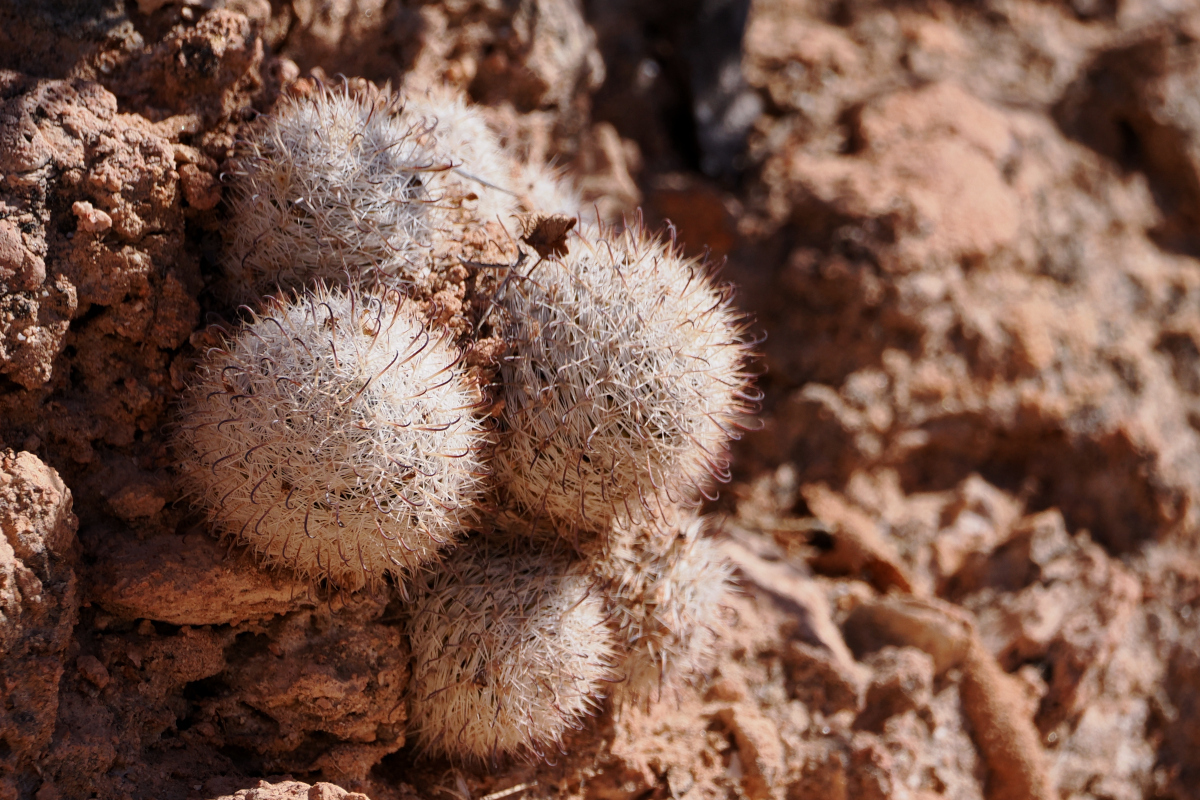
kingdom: Plantae
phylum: Tracheophyta
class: Magnoliopsida
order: Caryophyllales
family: Cactaceae
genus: Cochemiea
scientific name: Cochemiea albicans
